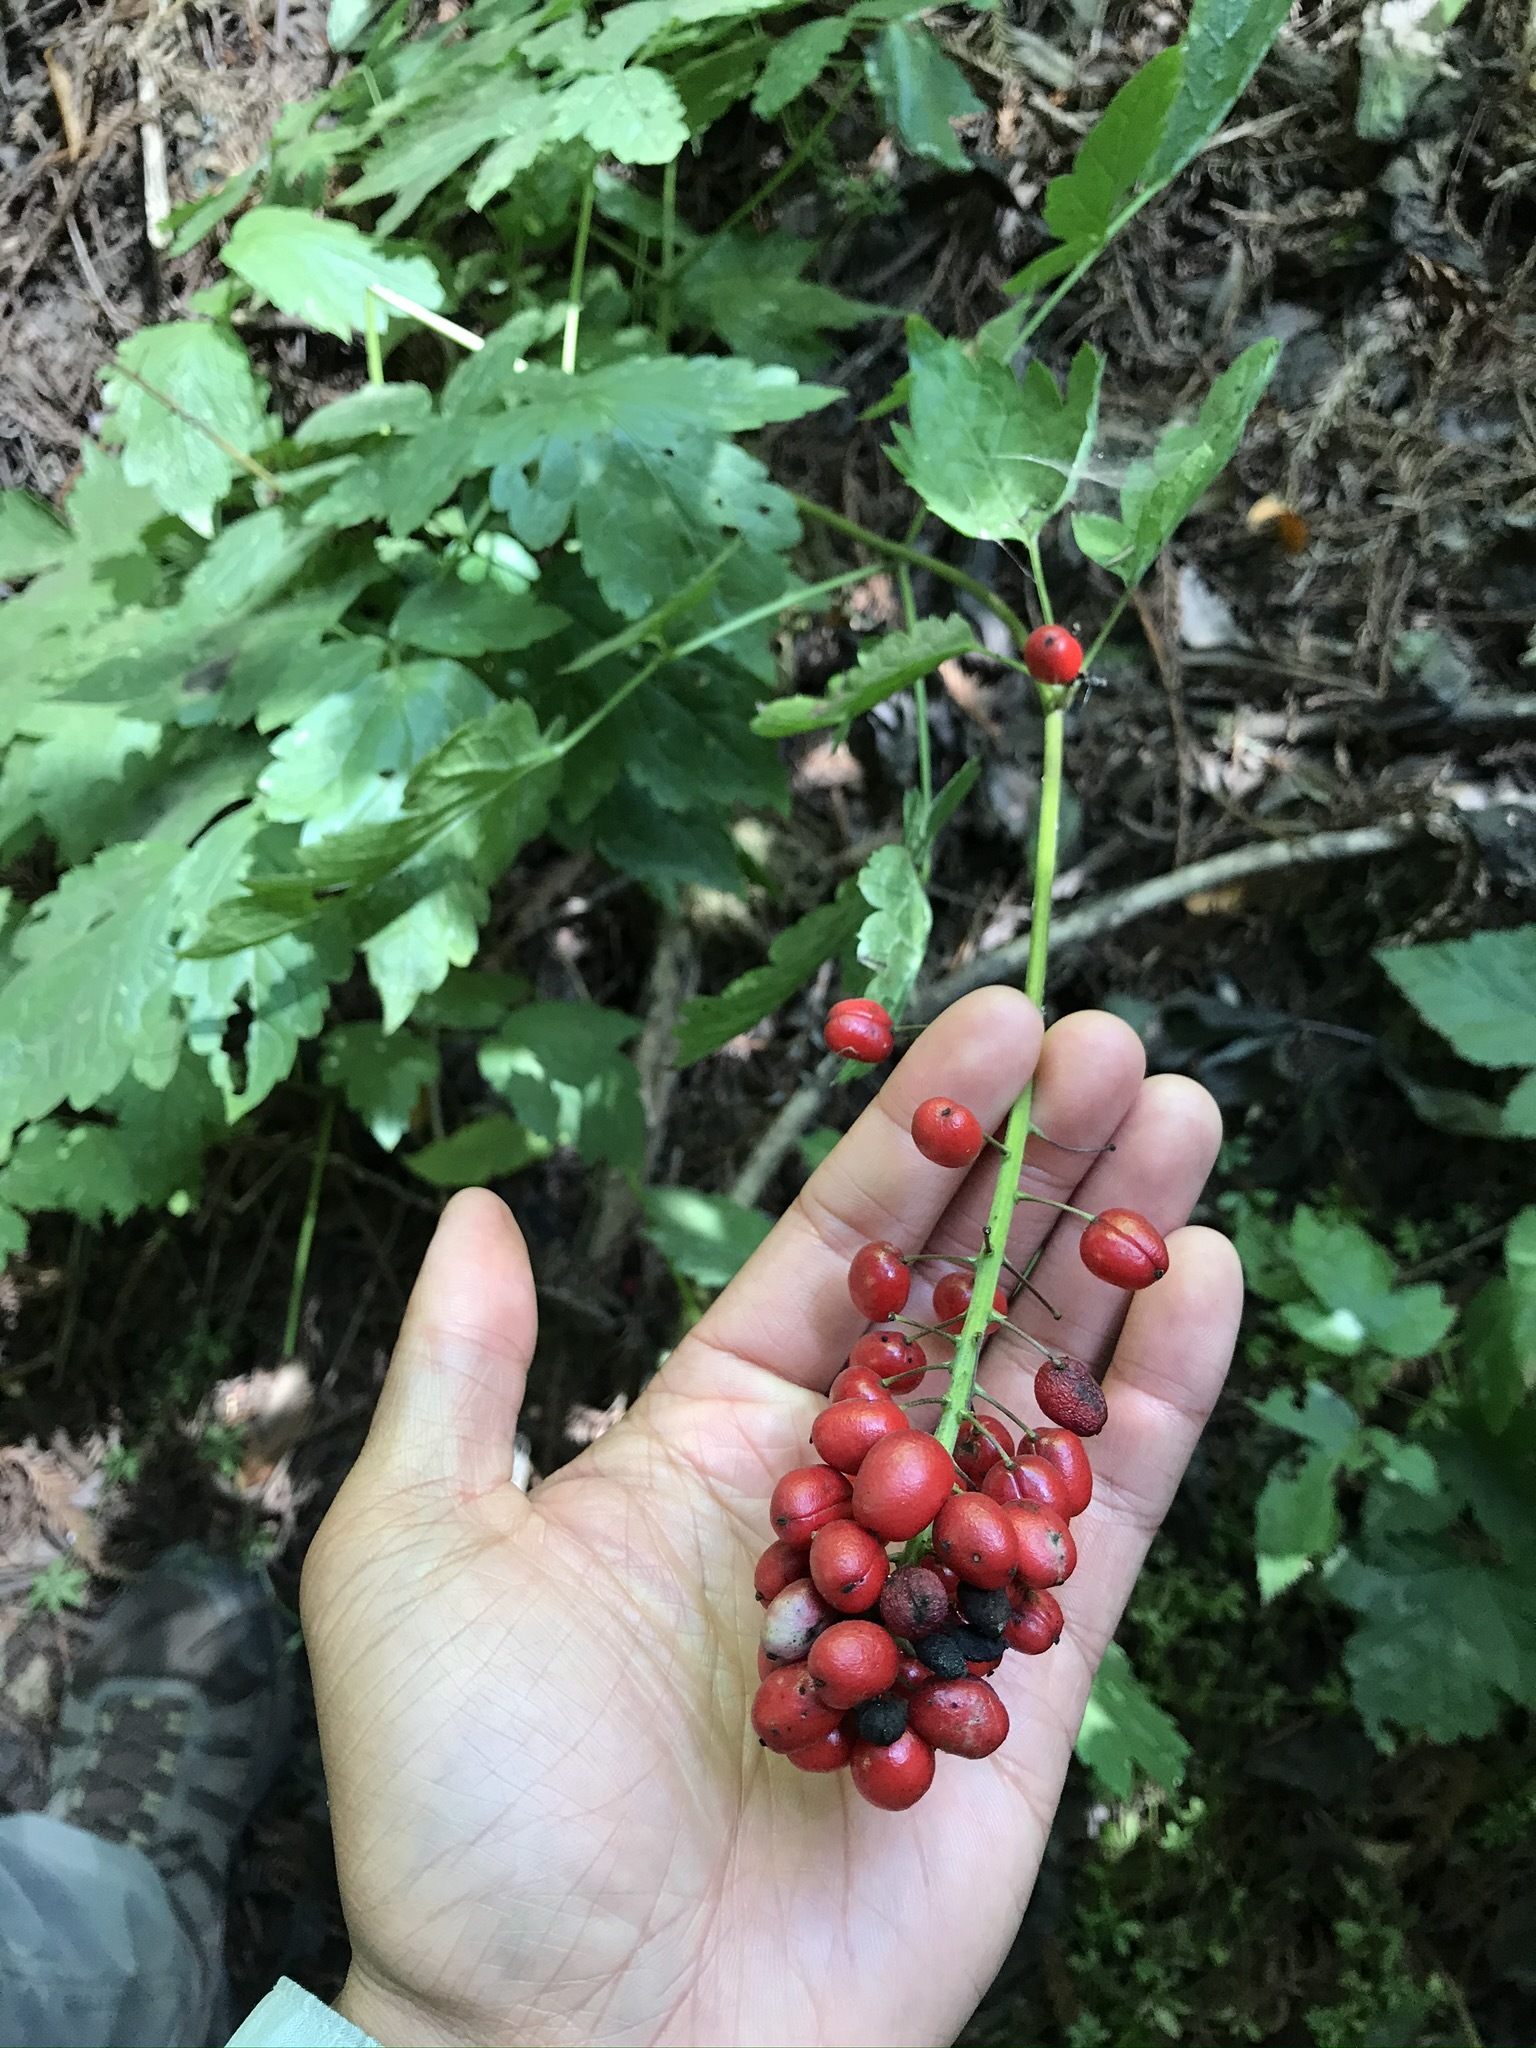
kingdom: Plantae
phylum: Tracheophyta
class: Magnoliopsida
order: Ranunculales
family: Ranunculaceae
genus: Actaea
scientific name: Actaea rubra
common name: Red baneberry
